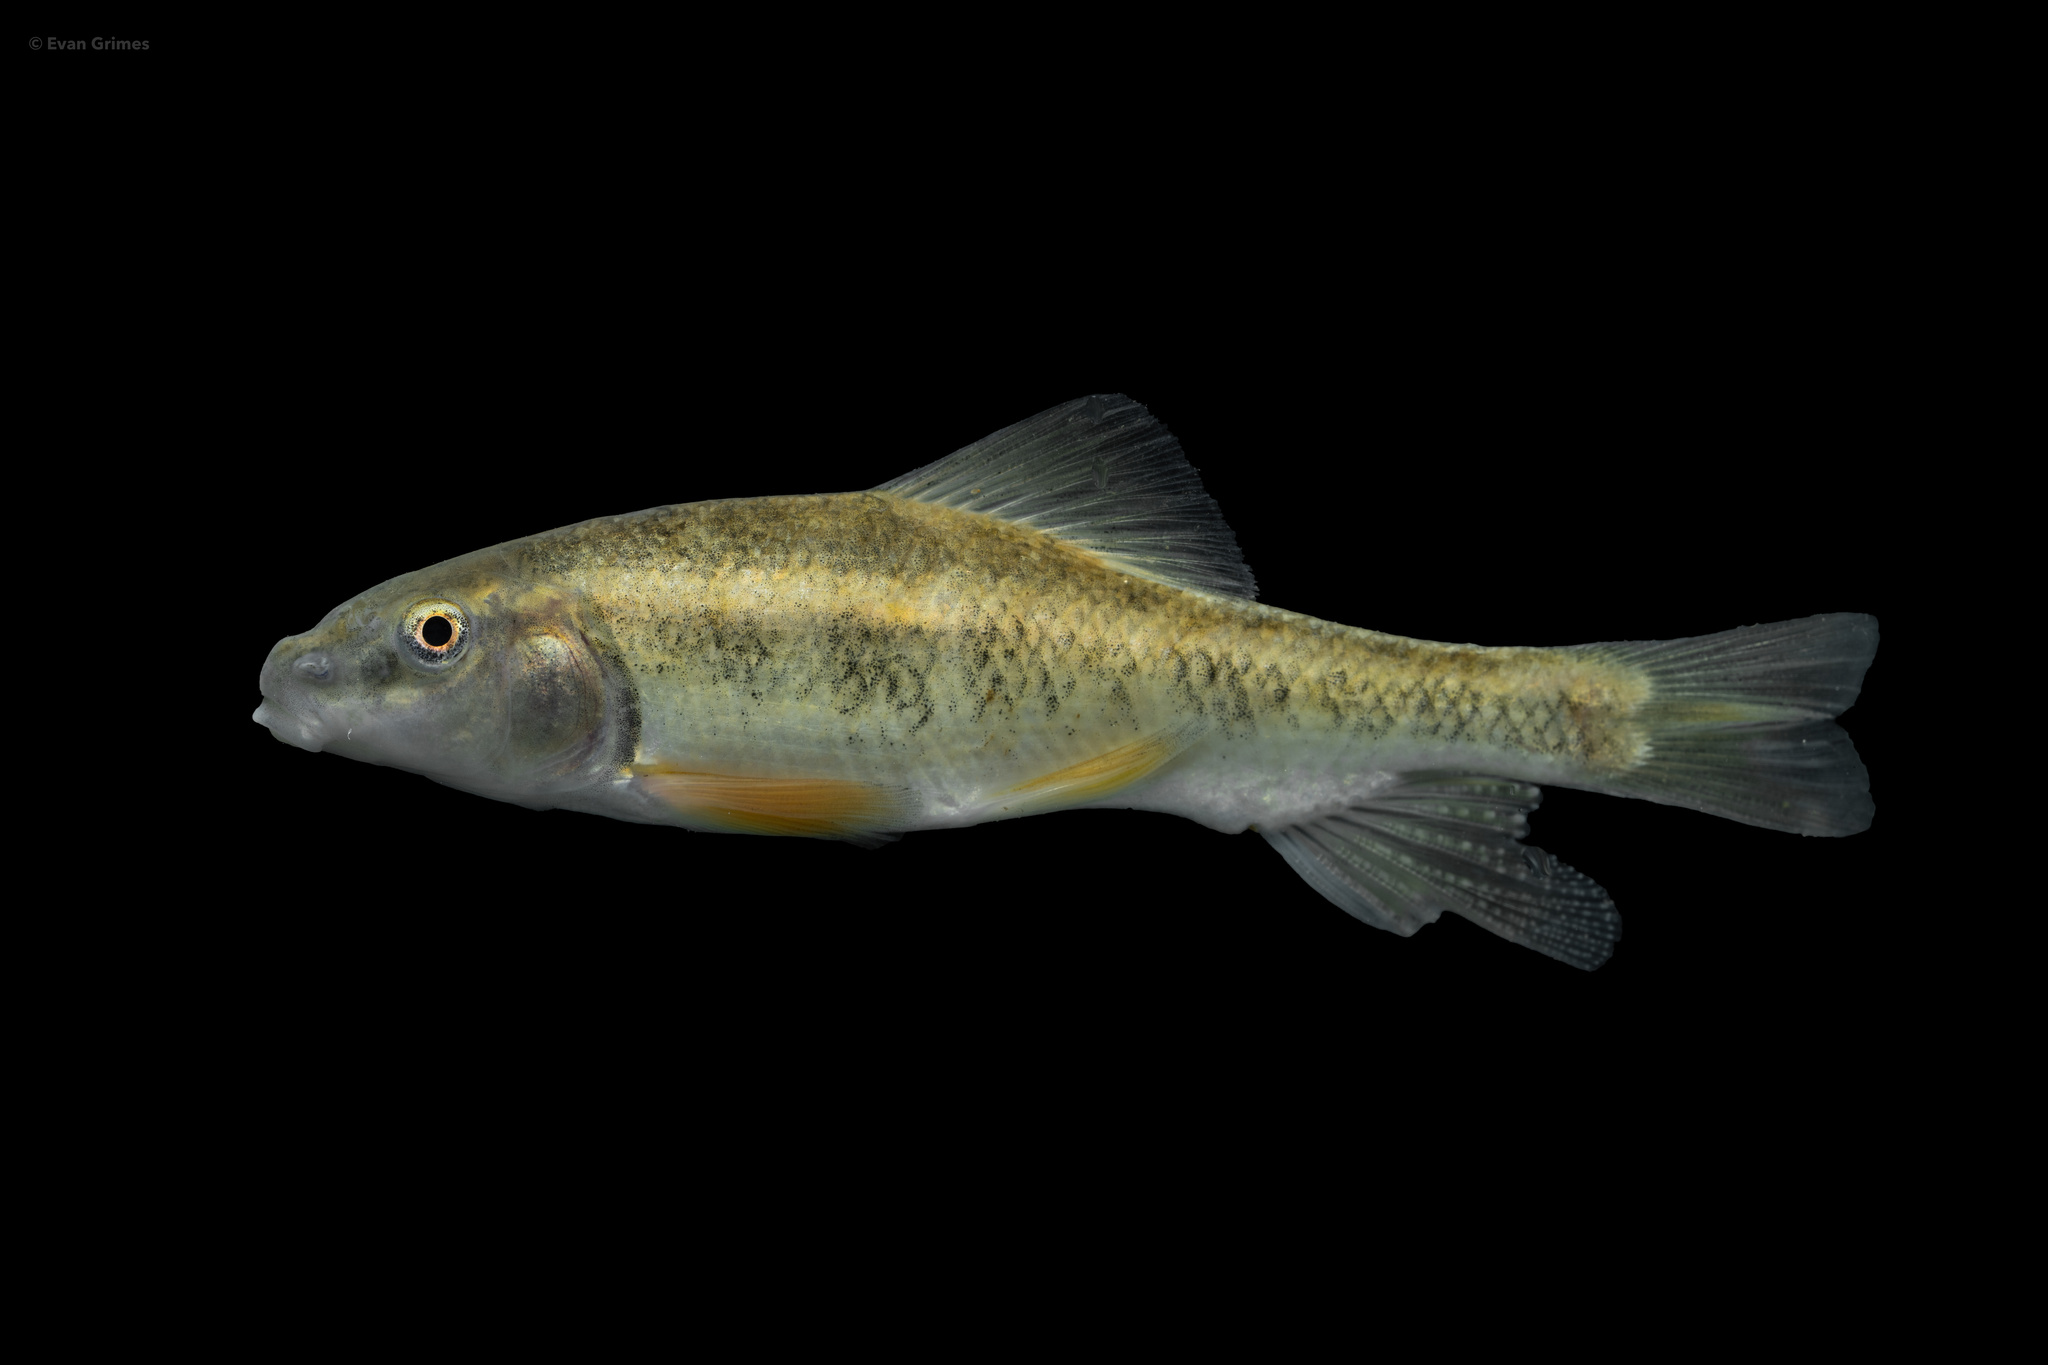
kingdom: Animalia
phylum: Chordata
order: Cypriniformes
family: Catostomidae
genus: Erimyzon
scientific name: Erimyzon claviformis
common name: Western creek chubsucker
